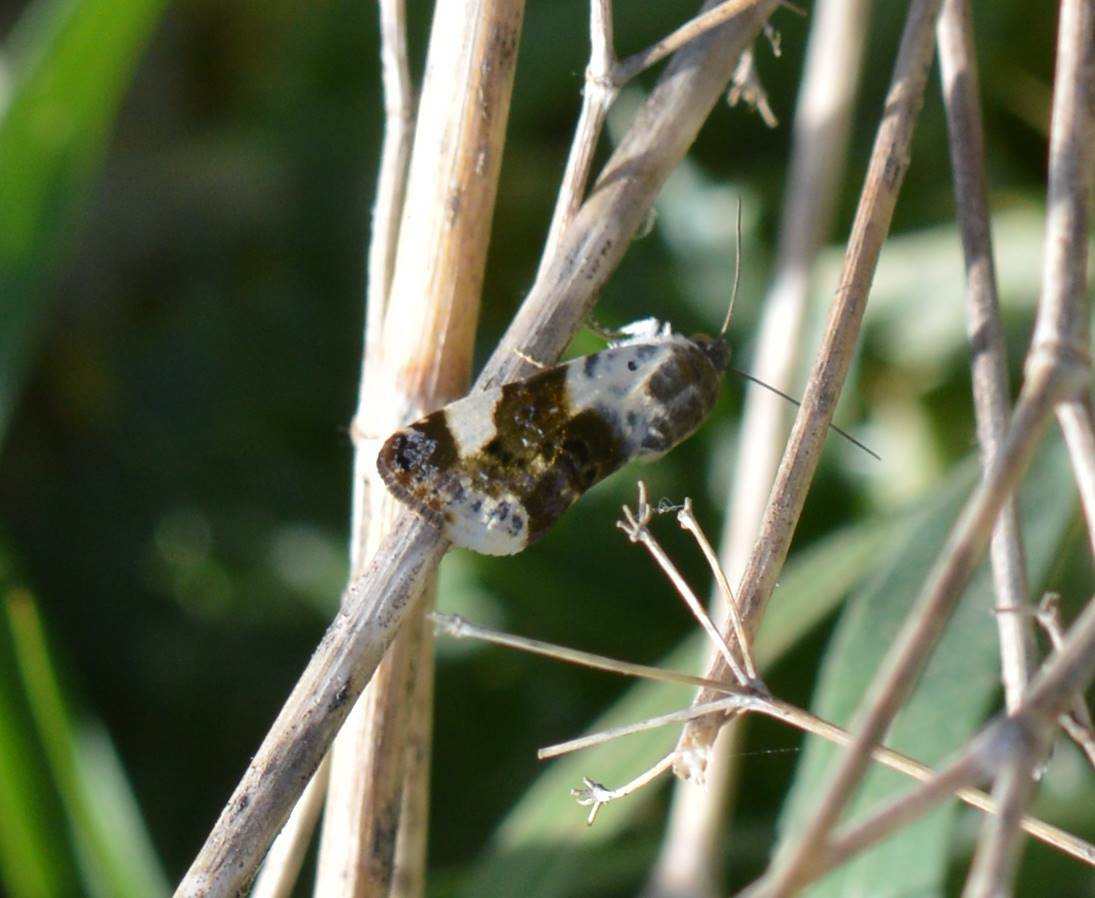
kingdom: Animalia
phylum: Arthropoda
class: Insecta
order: Lepidoptera
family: Noctuidae
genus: Acontia
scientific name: Acontia lucida
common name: Pale shoulder
